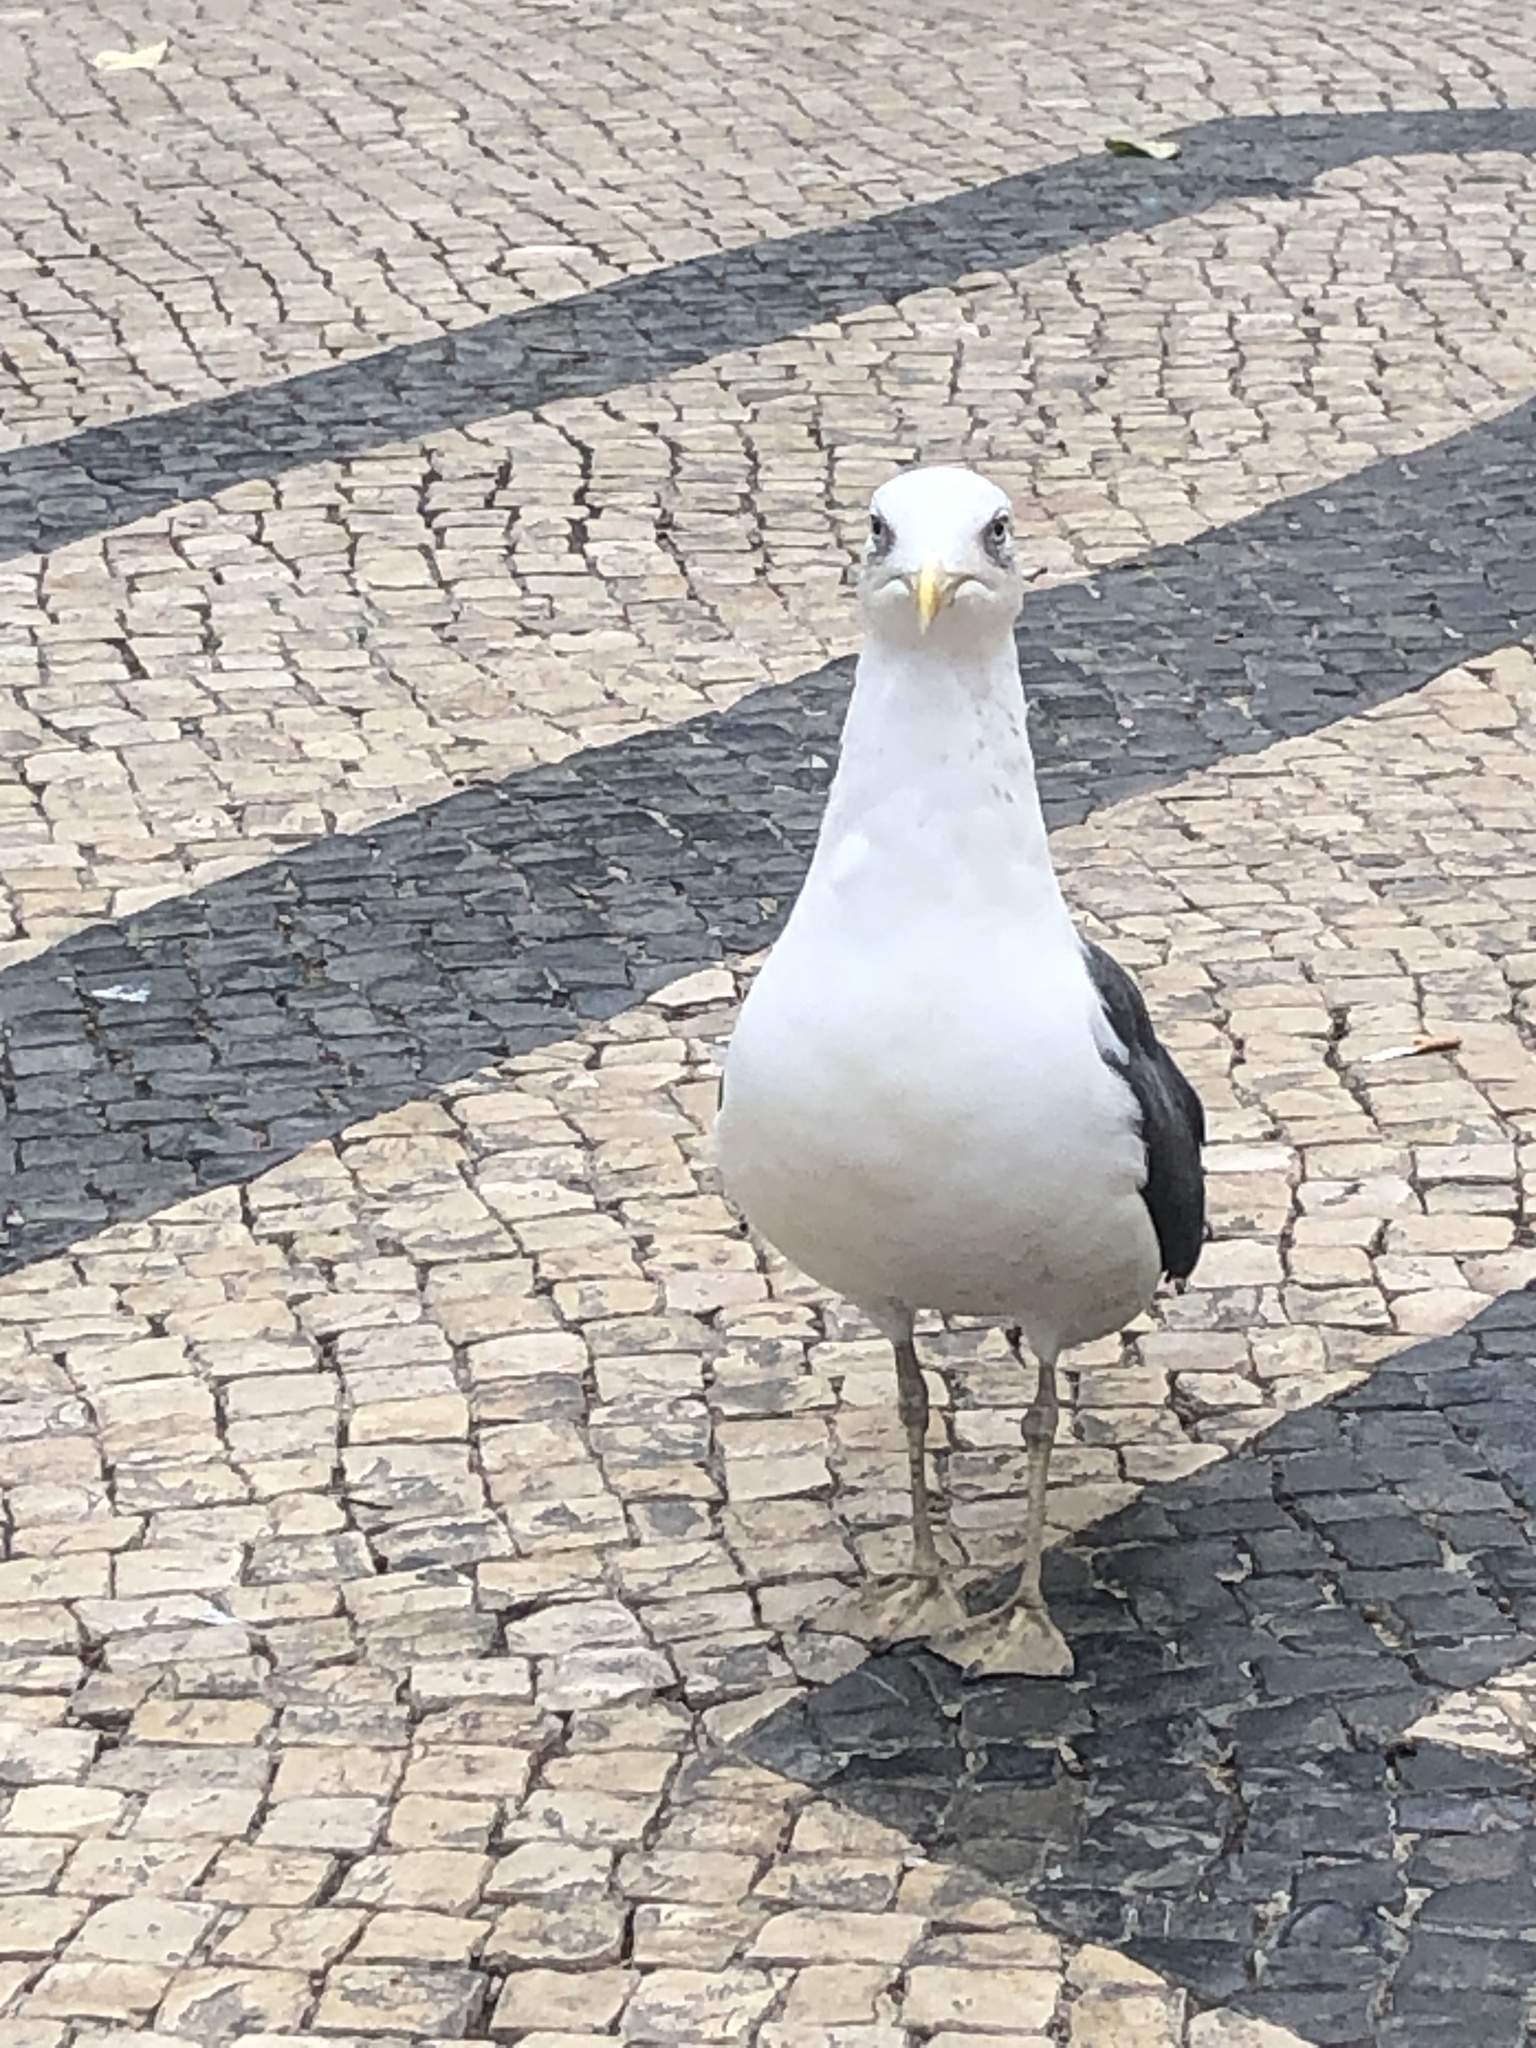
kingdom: Animalia
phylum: Chordata
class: Aves
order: Charadriiformes
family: Laridae
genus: Larus
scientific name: Larus fuscus
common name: Lesser black-backed gull
